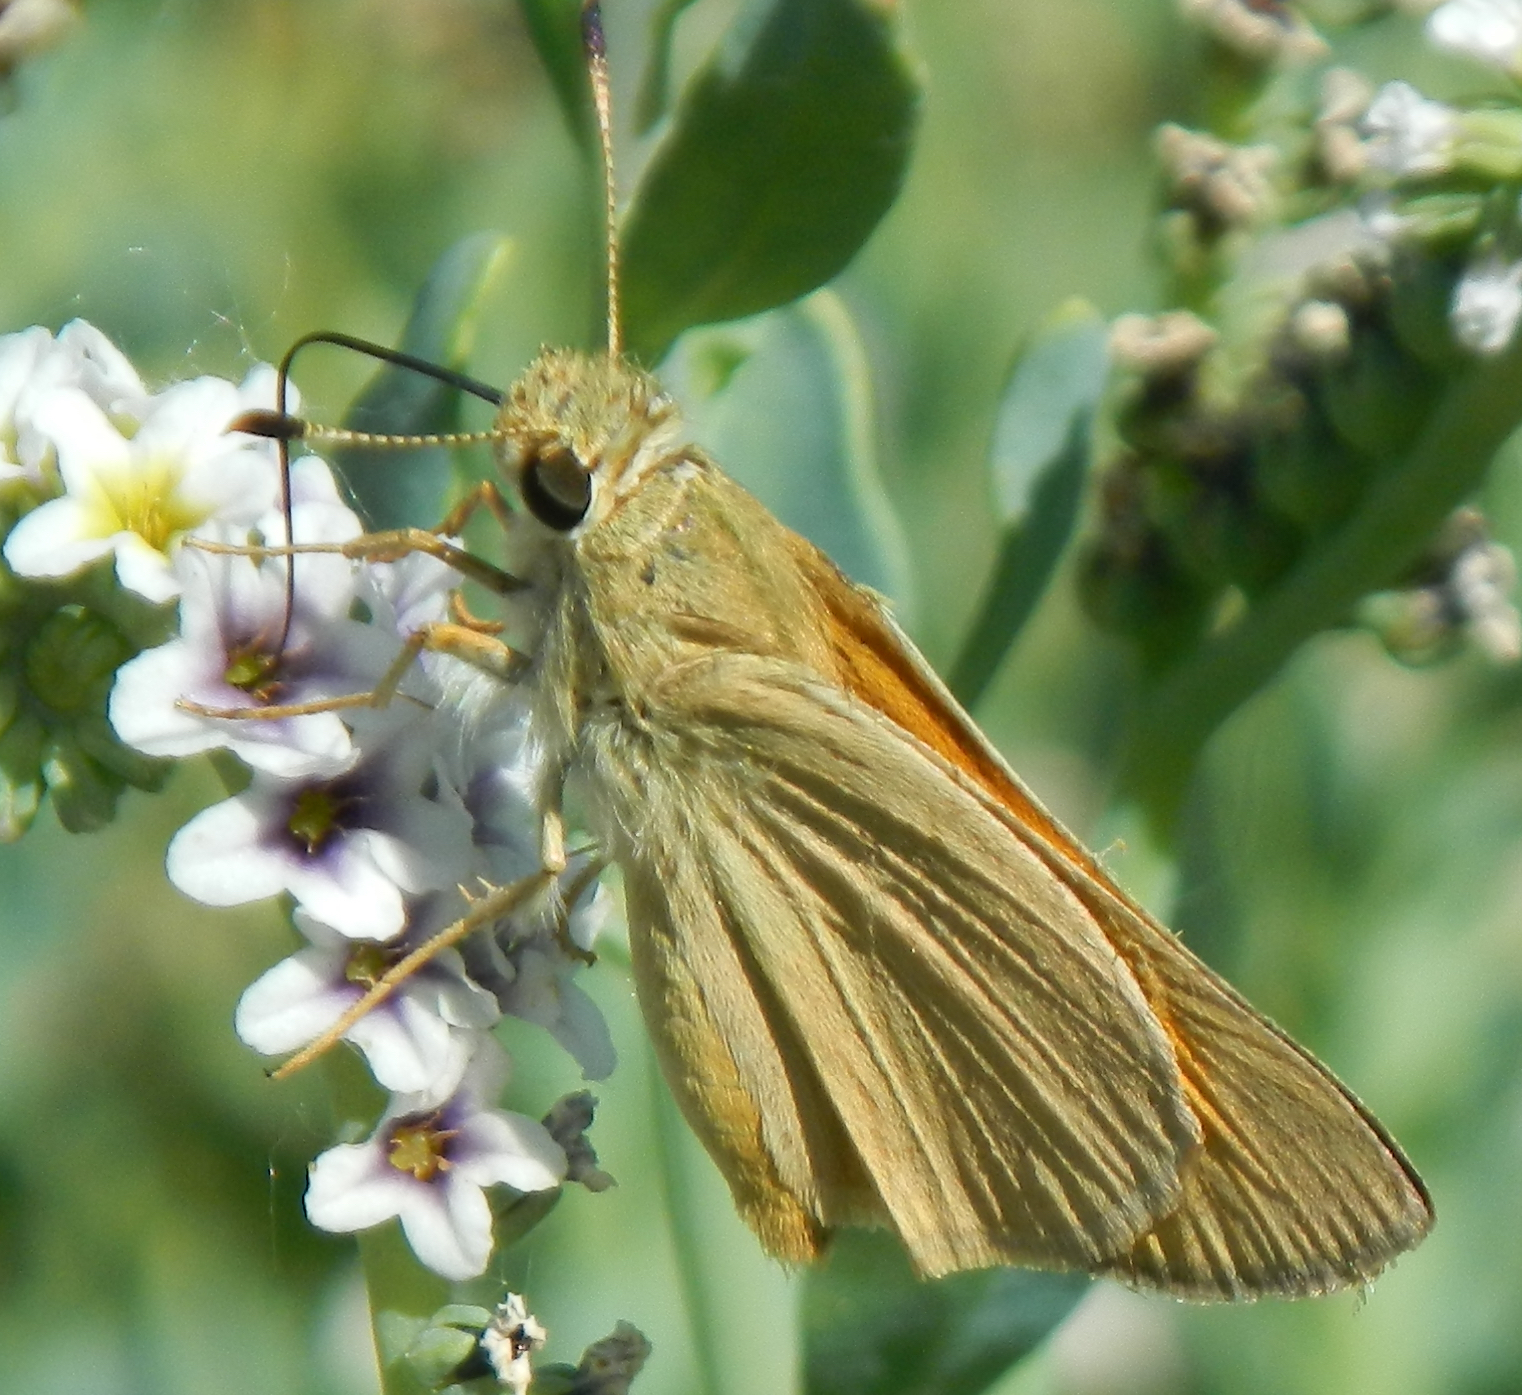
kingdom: Animalia
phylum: Arthropoda
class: Insecta
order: Lepidoptera
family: Hesperiidae
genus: Ochlodes
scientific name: Ochlodes sylvanoides
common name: Woodland skipper
